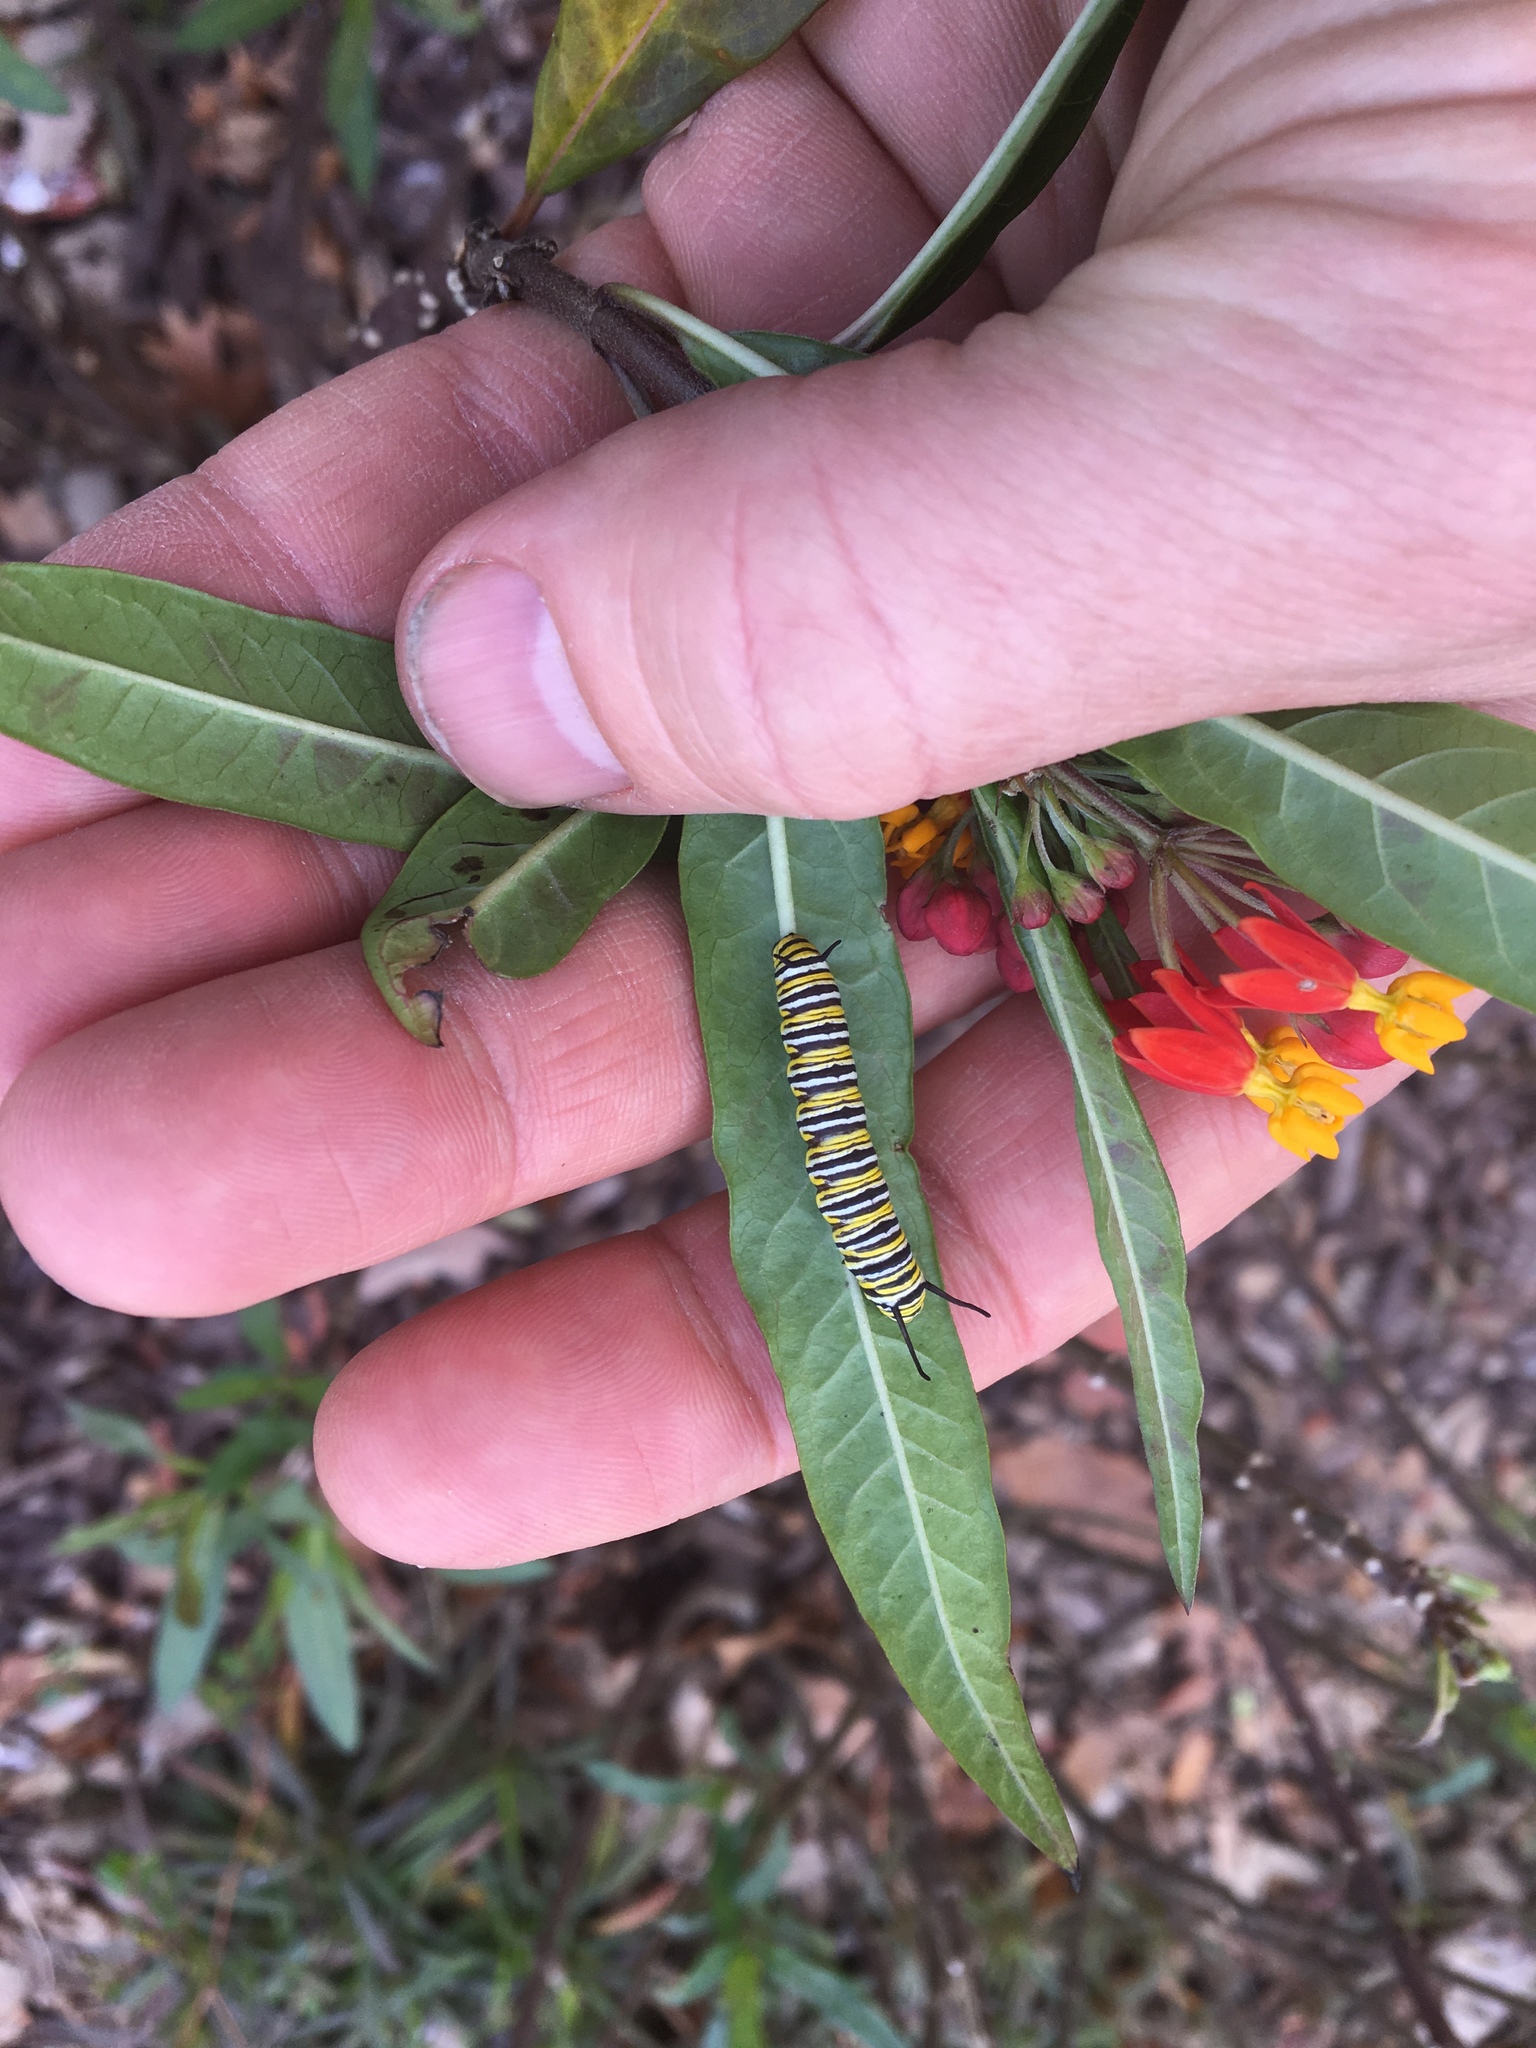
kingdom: Animalia
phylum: Arthropoda
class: Insecta
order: Lepidoptera
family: Nymphalidae
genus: Danaus
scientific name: Danaus plexippus
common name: Monarch
